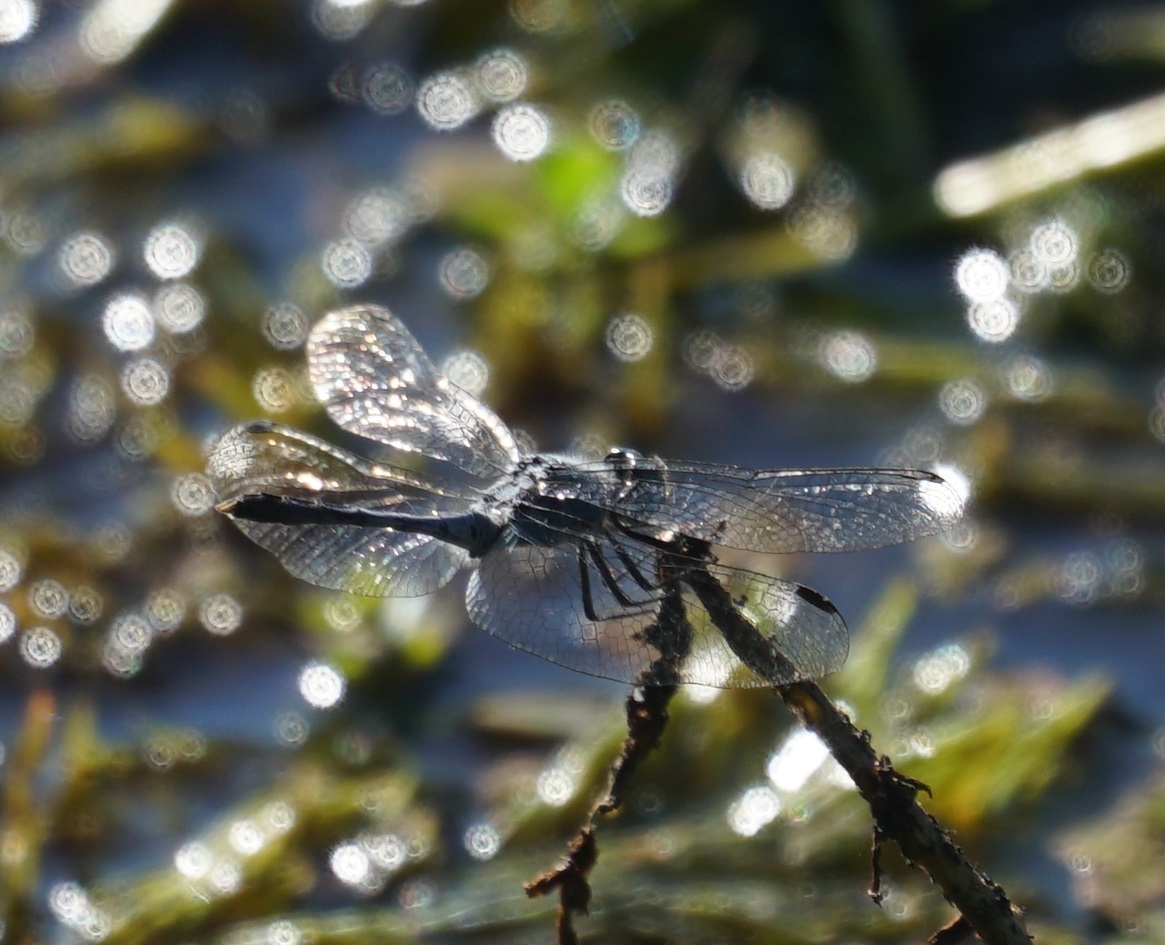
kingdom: Animalia
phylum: Arthropoda
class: Insecta
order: Odonata
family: Libellulidae
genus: Diplacodes
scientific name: Diplacodes trivialis
